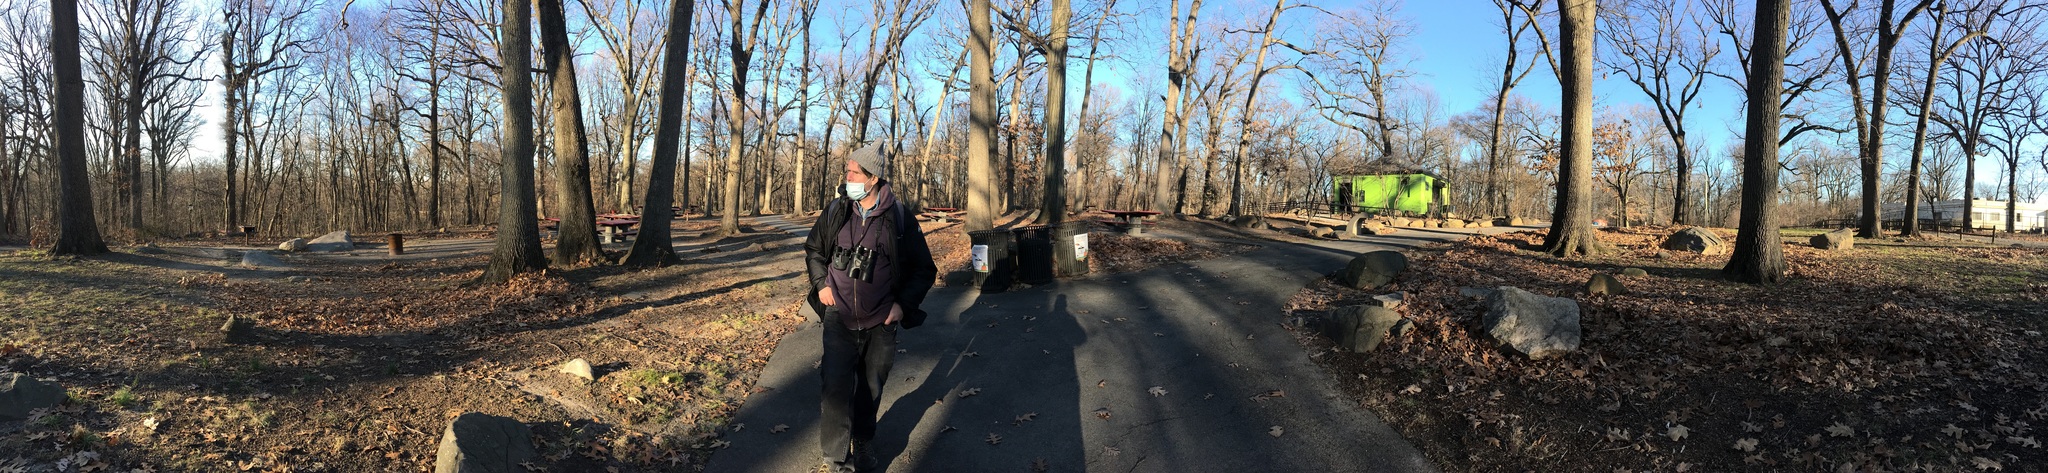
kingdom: Plantae
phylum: Tracheophyta
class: Magnoliopsida
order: Fagales
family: Fagaceae
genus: Quercus
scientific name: Quercus velutina
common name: Black oak
